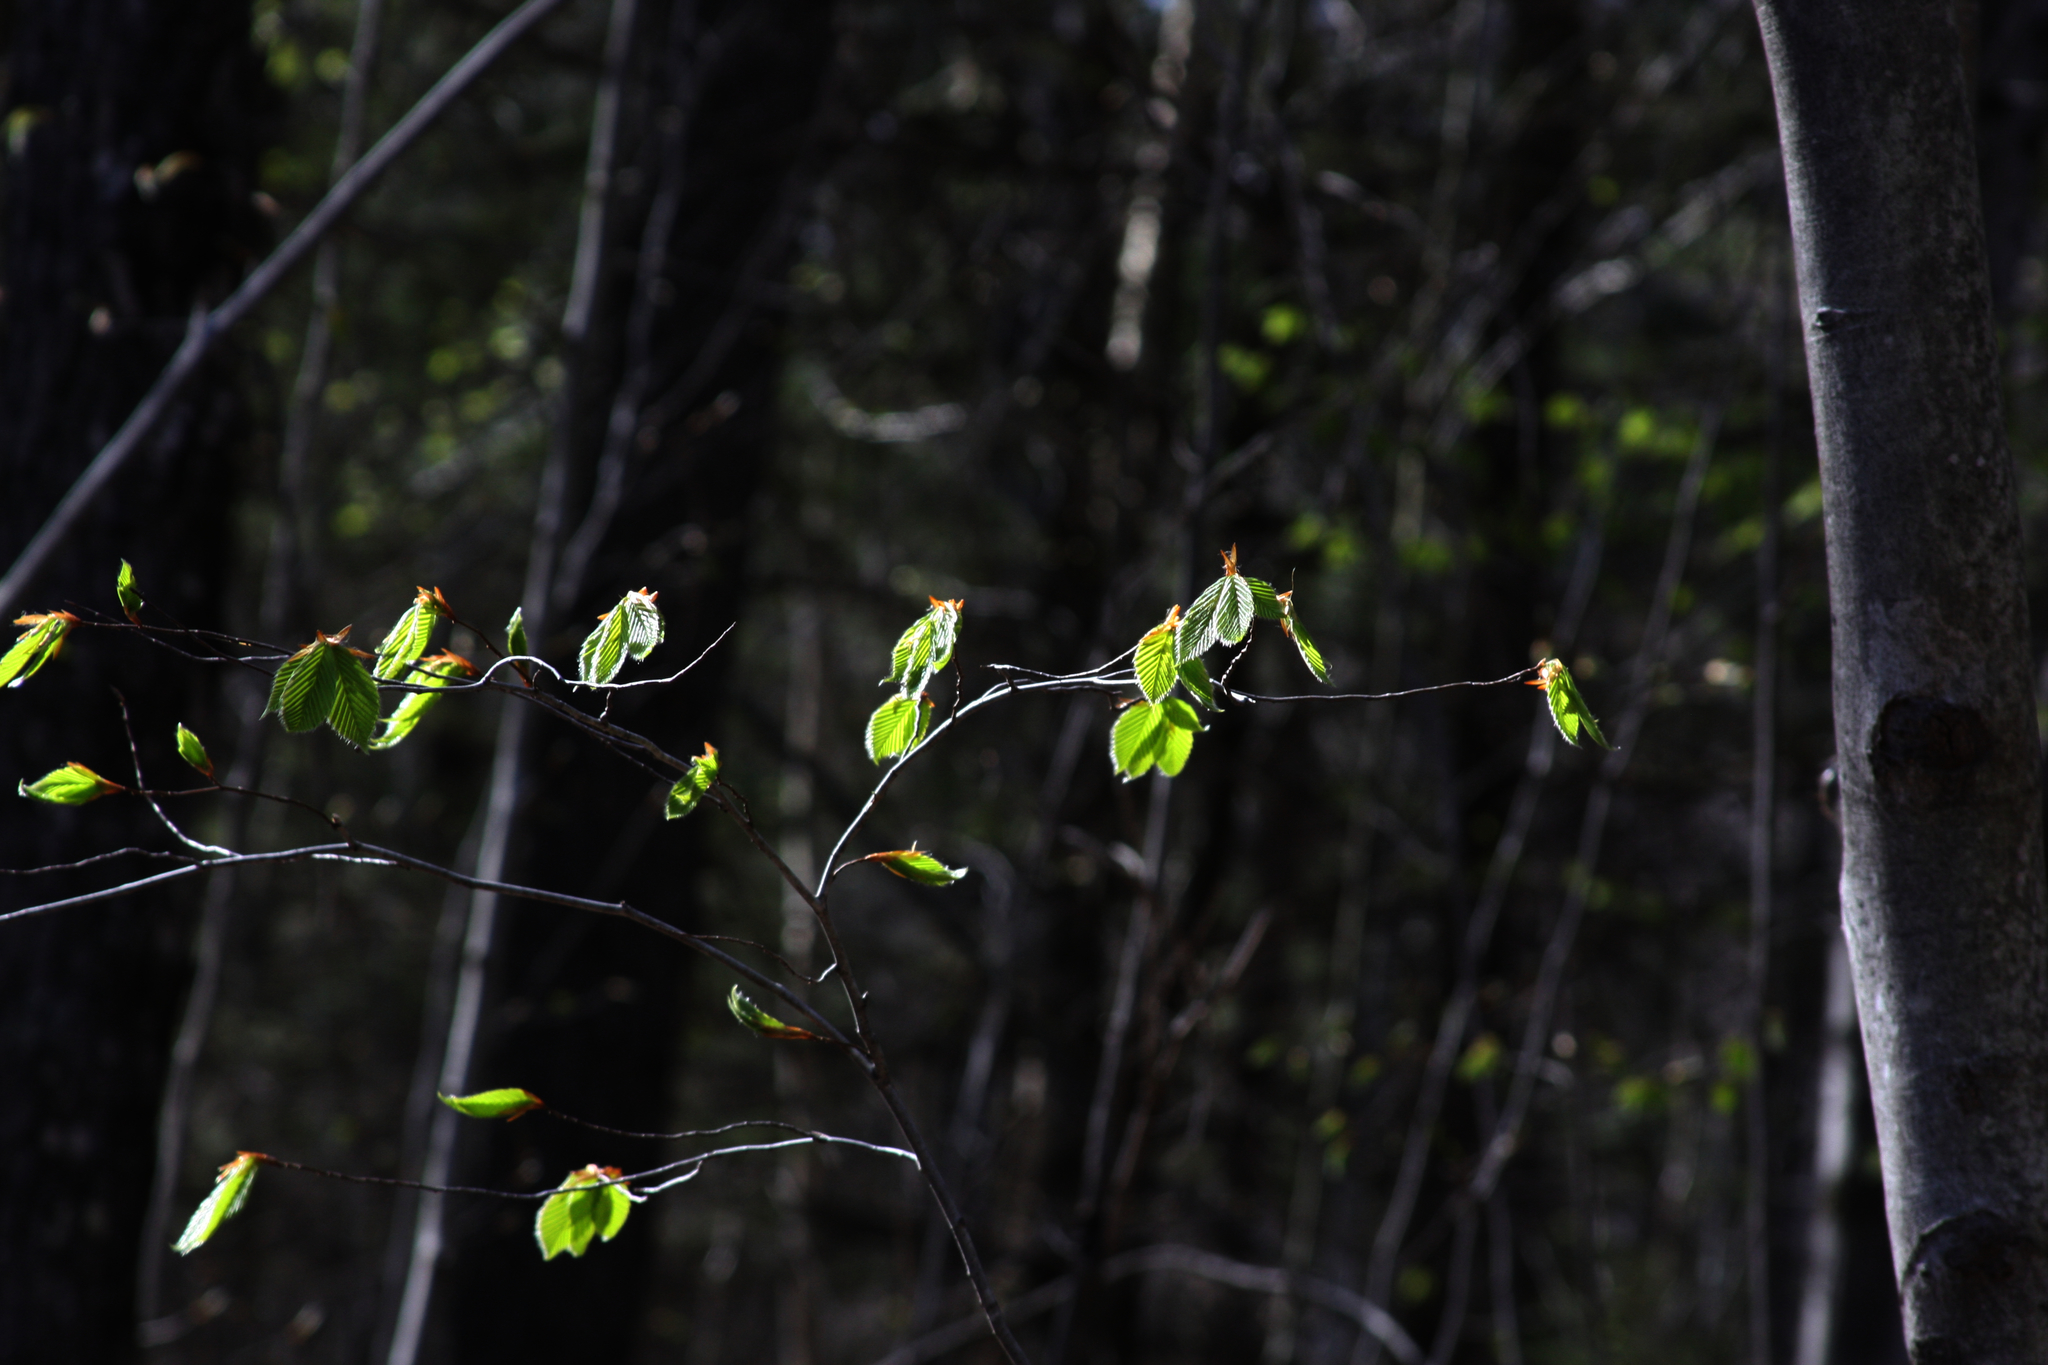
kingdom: Plantae
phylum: Tracheophyta
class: Magnoliopsida
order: Fagales
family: Fagaceae
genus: Fagus
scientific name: Fagus grandifolia
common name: American beech
